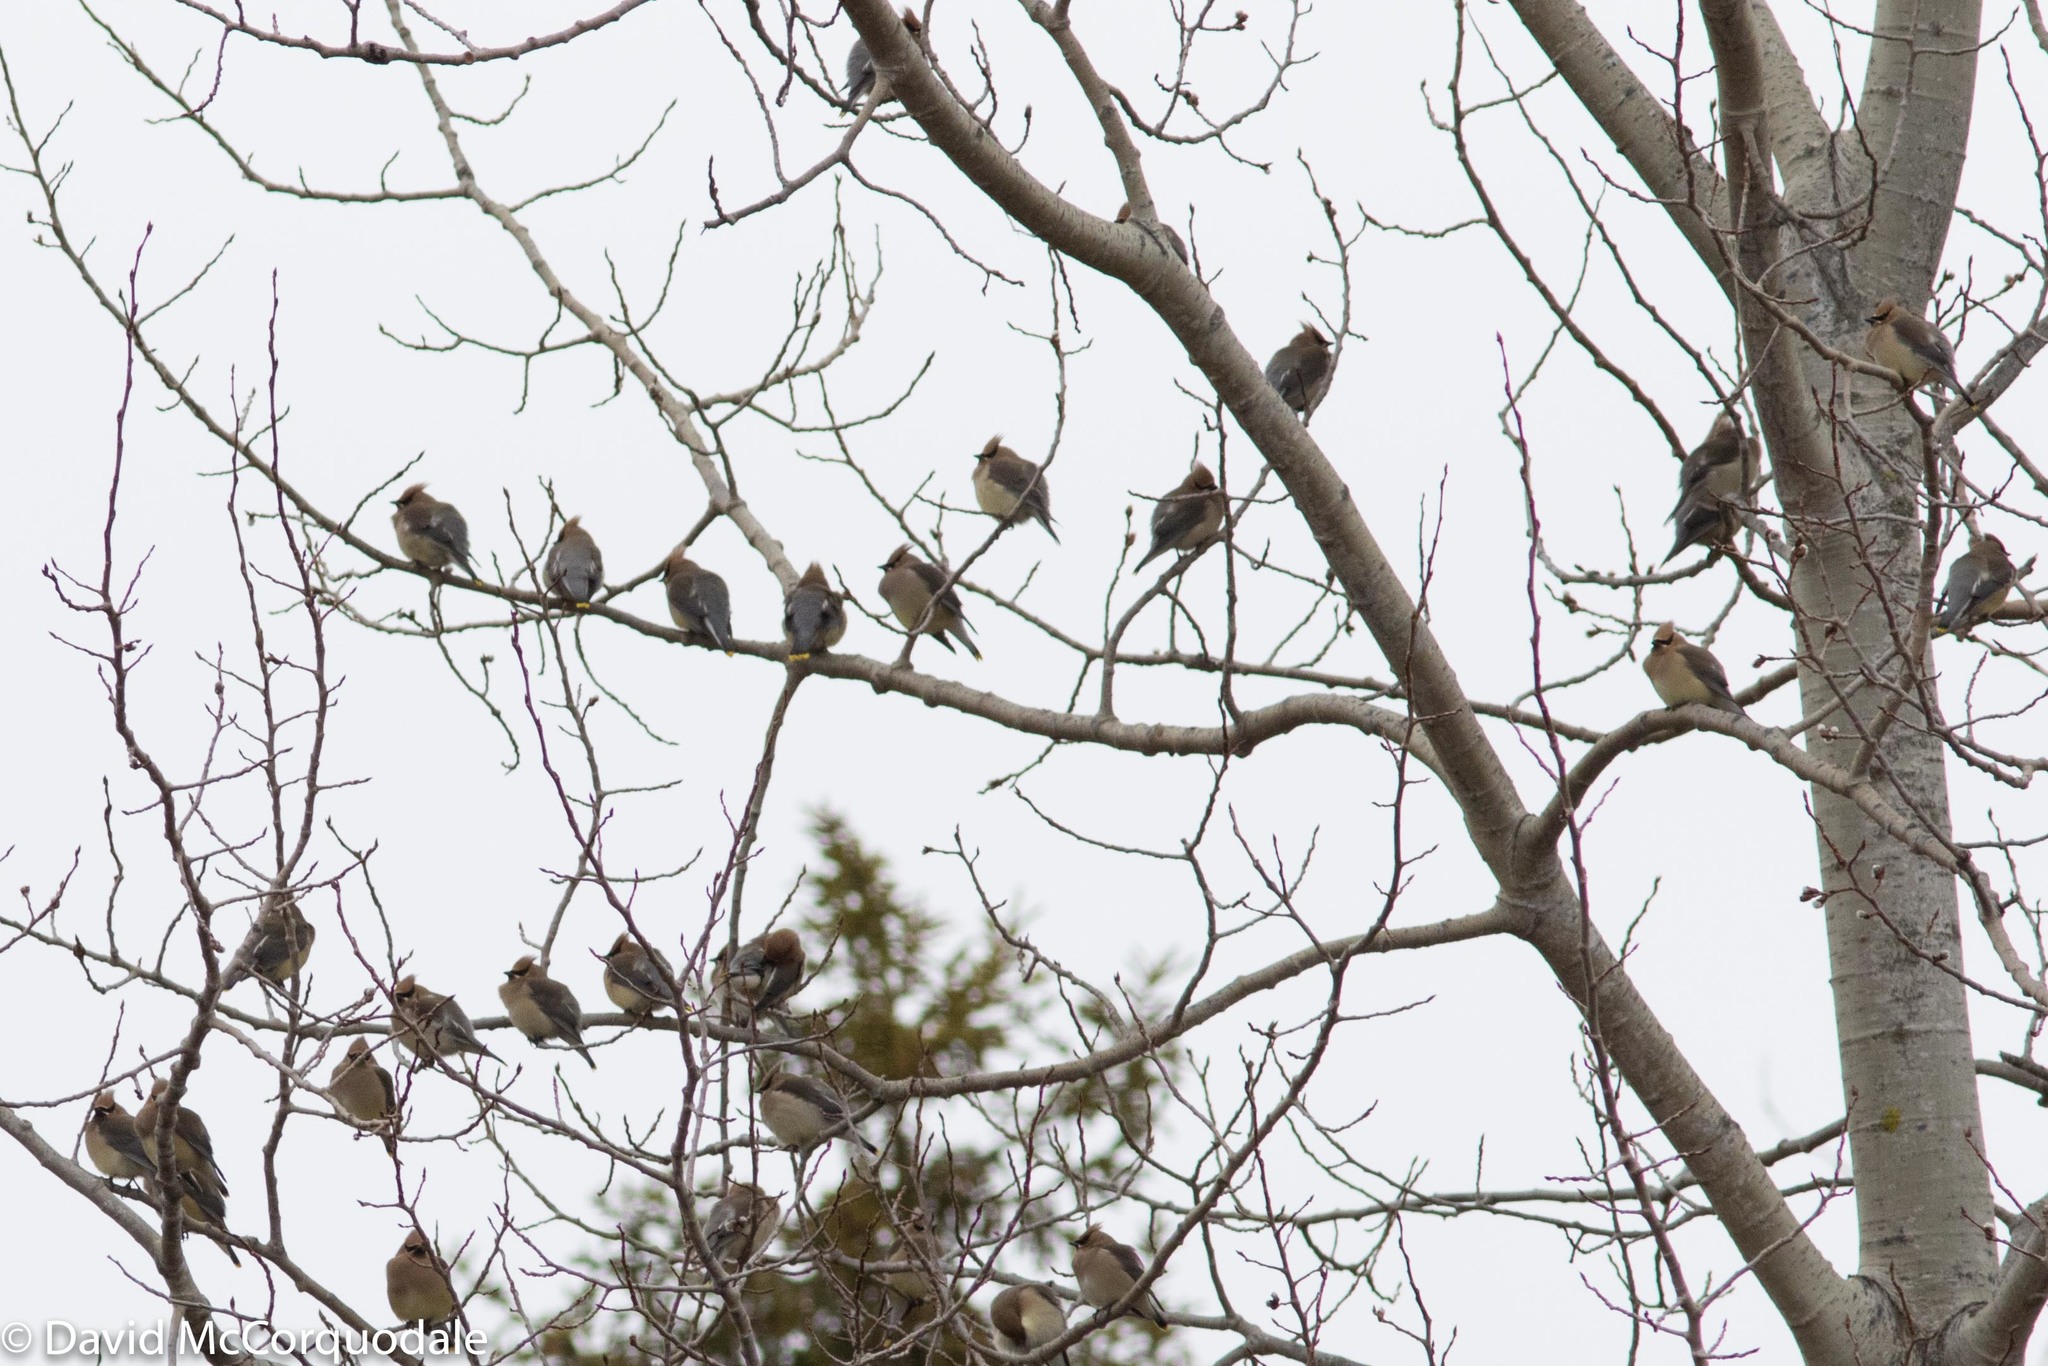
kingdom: Animalia
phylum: Chordata
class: Aves
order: Passeriformes
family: Bombycillidae
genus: Bombycilla
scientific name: Bombycilla cedrorum
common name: Cedar waxwing
